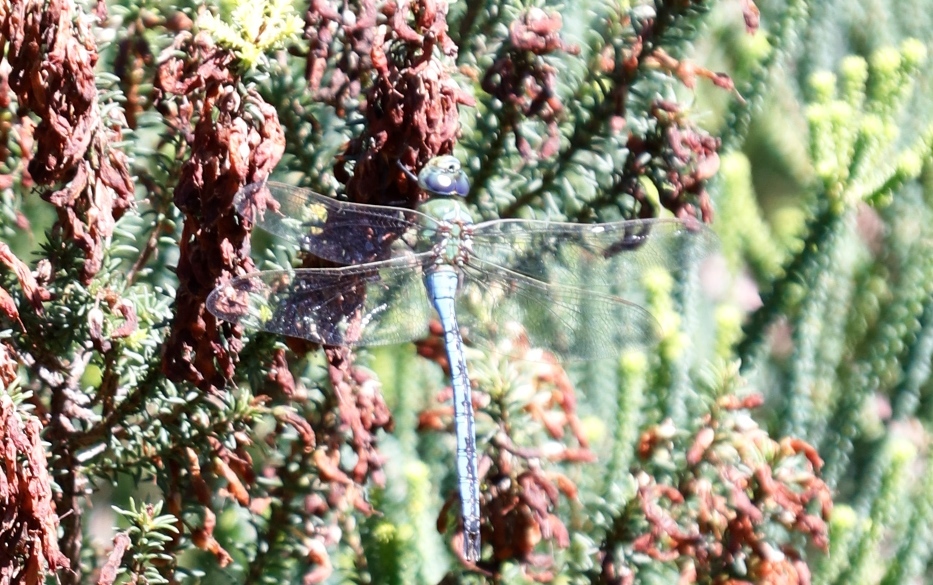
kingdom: Animalia
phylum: Arthropoda
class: Insecta
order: Odonata
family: Aeshnidae
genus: Anax
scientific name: Anax imperator
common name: Emperor dragonfly
